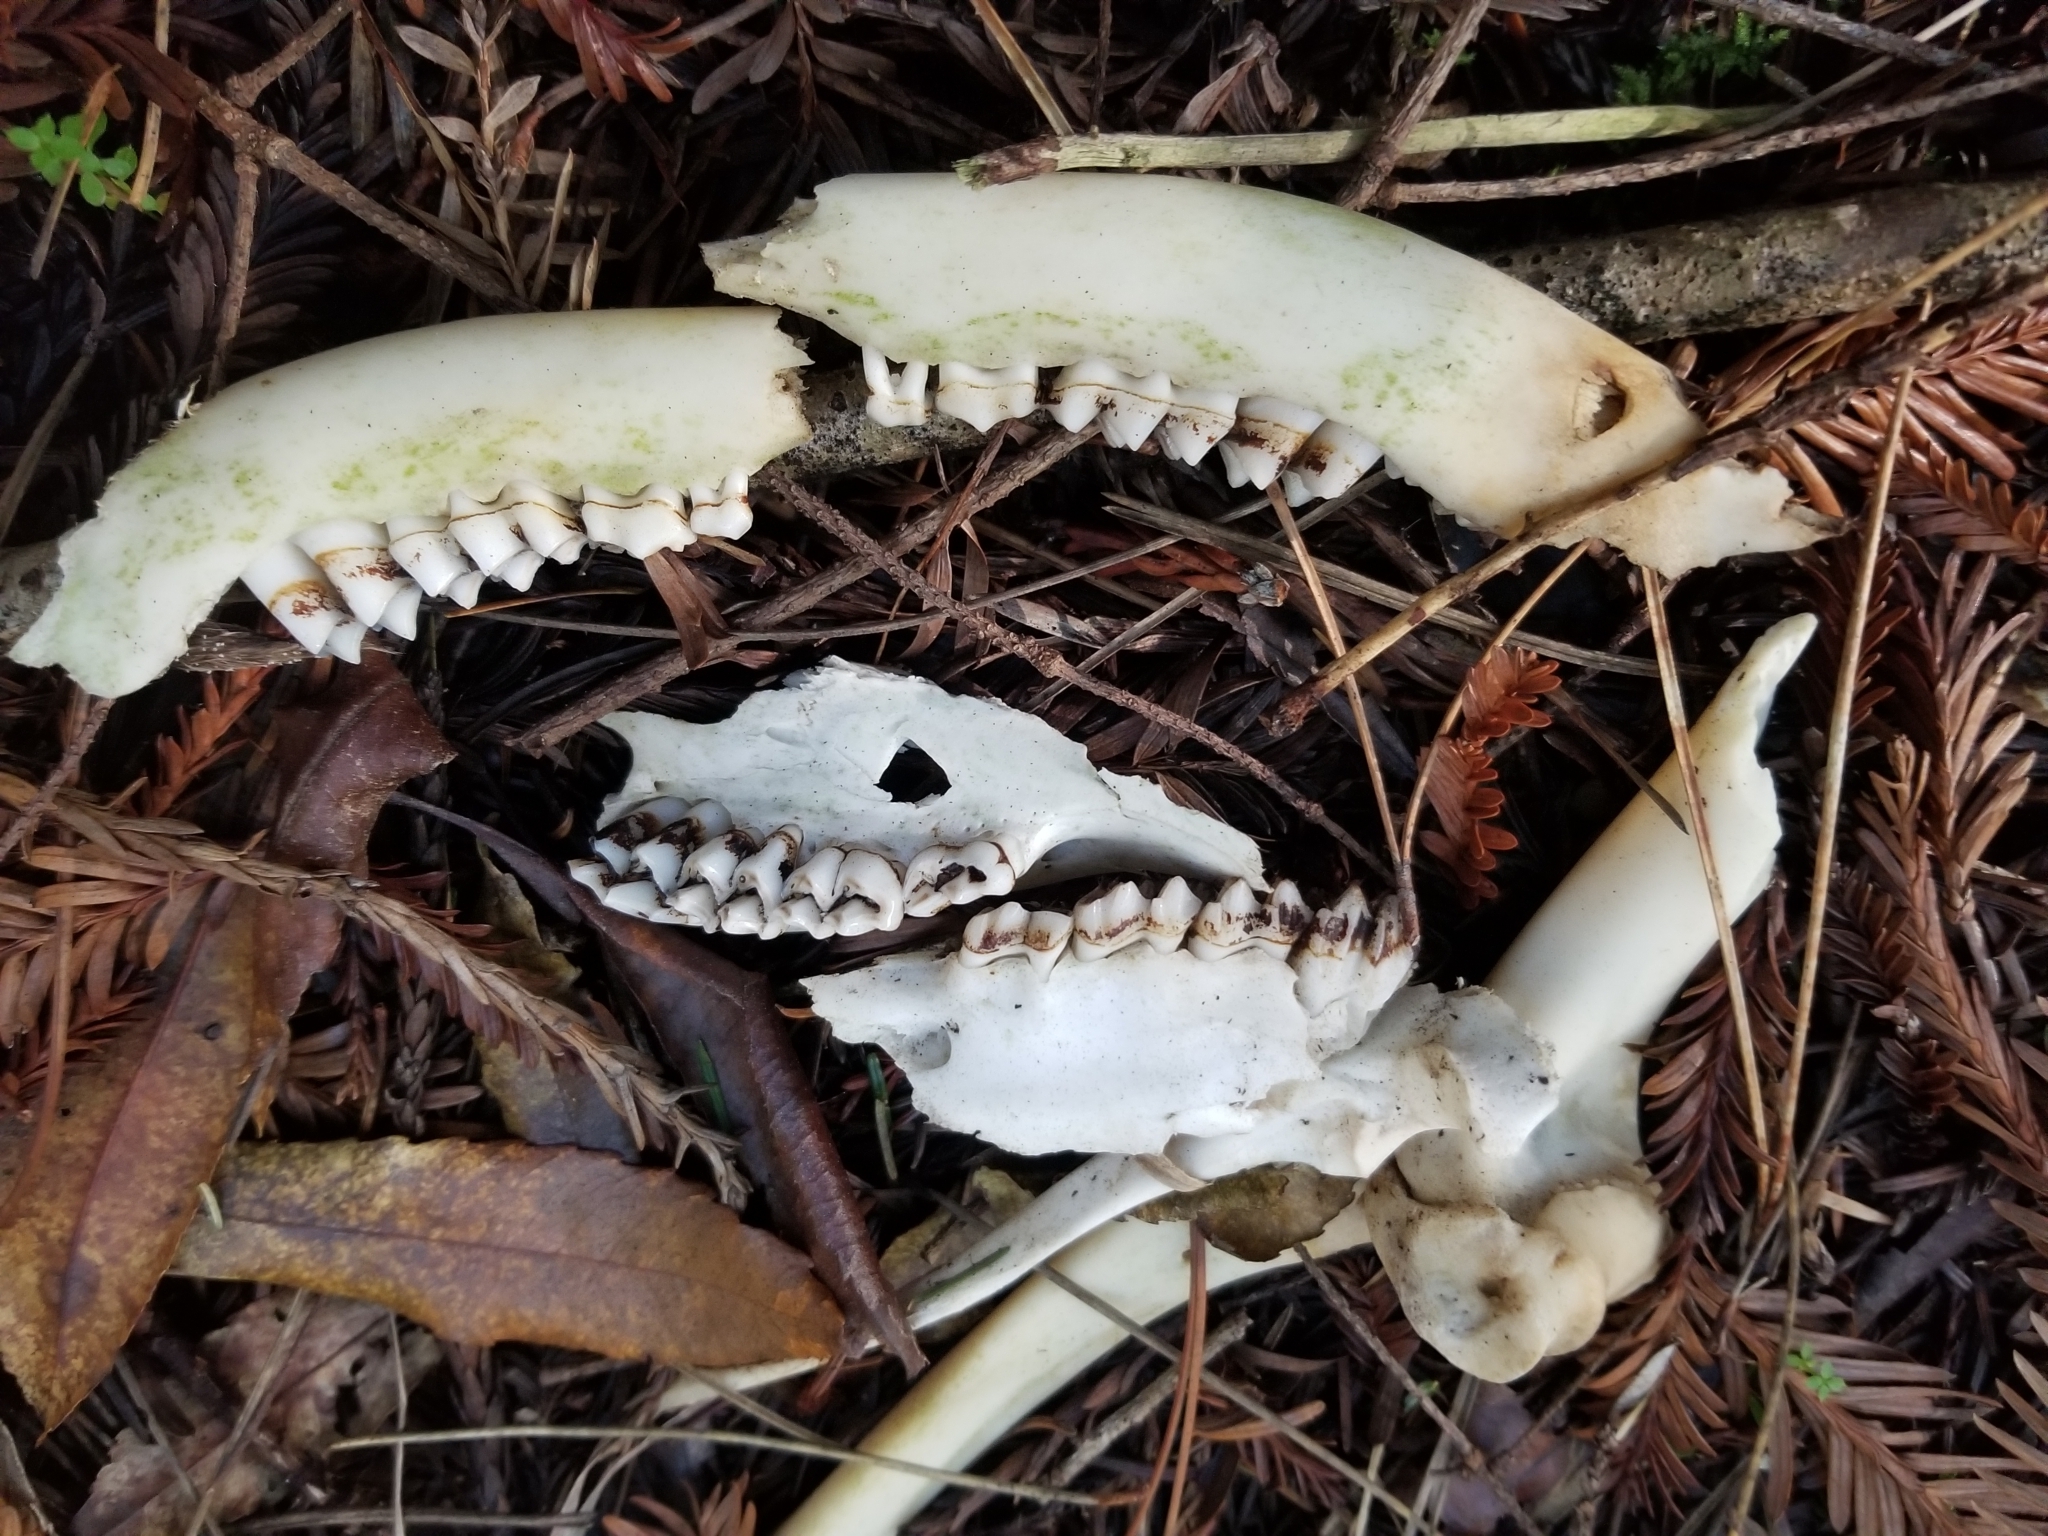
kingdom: Animalia
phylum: Chordata
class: Mammalia
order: Artiodactyla
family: Cervidae
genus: Odocoileus
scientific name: Odocoileus hemionus
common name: Mule deer
